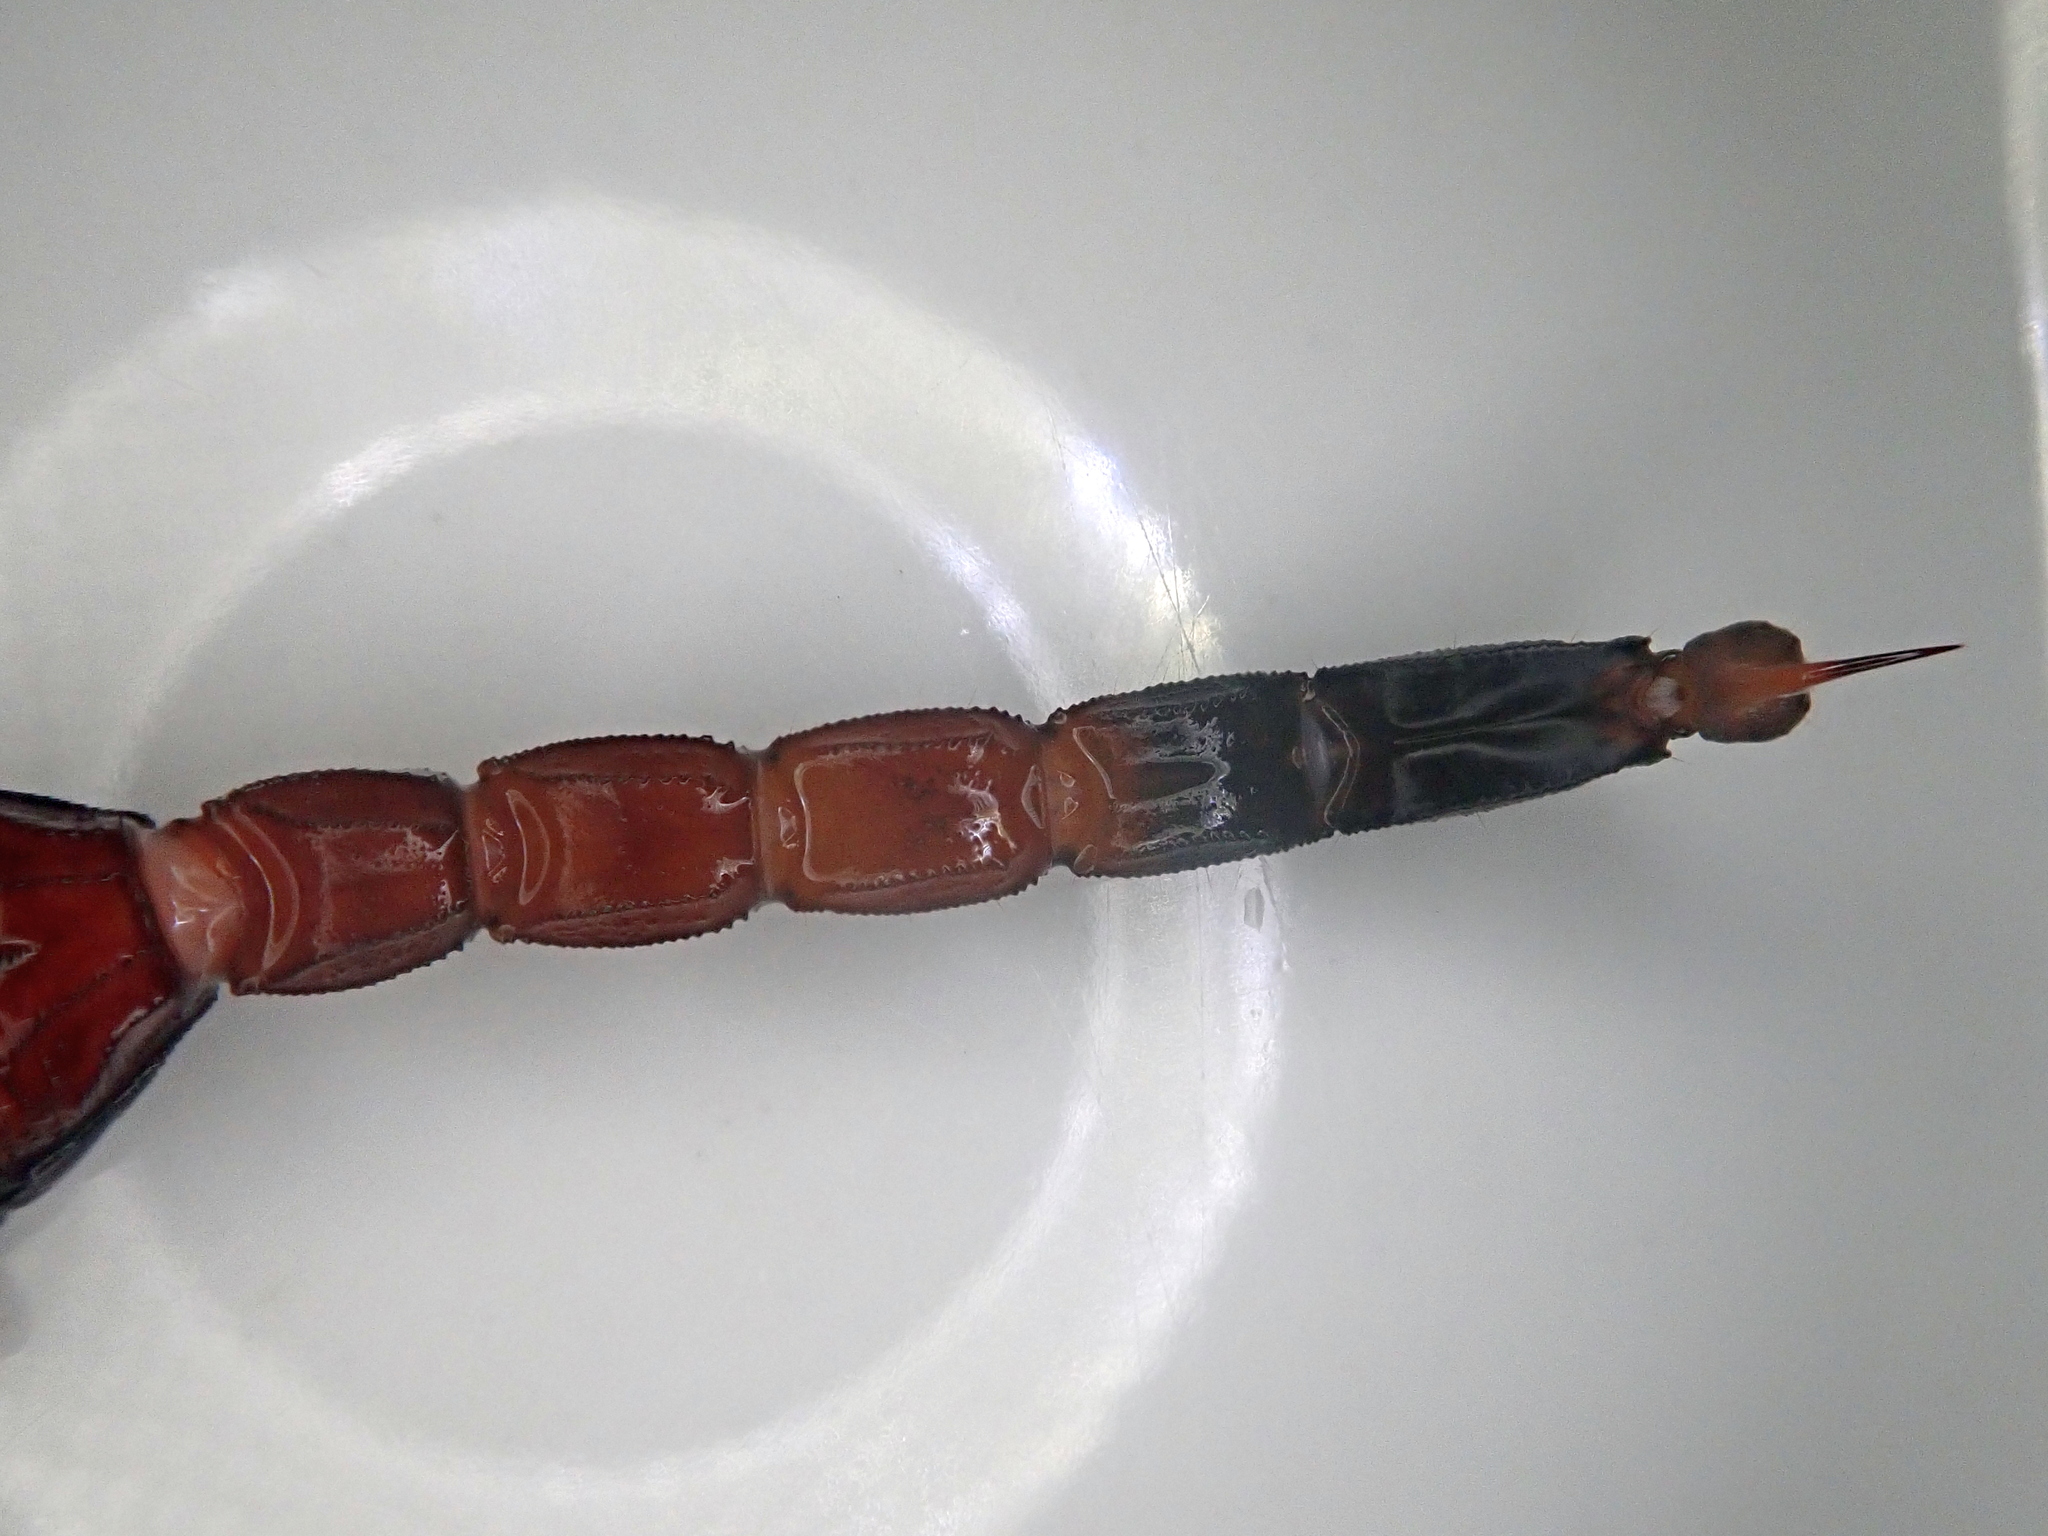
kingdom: Animalia
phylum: Arthropoda
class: Arachnida
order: Scorpiones
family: Buthidae
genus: Jaguajir
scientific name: Jaguajir agamemnon
